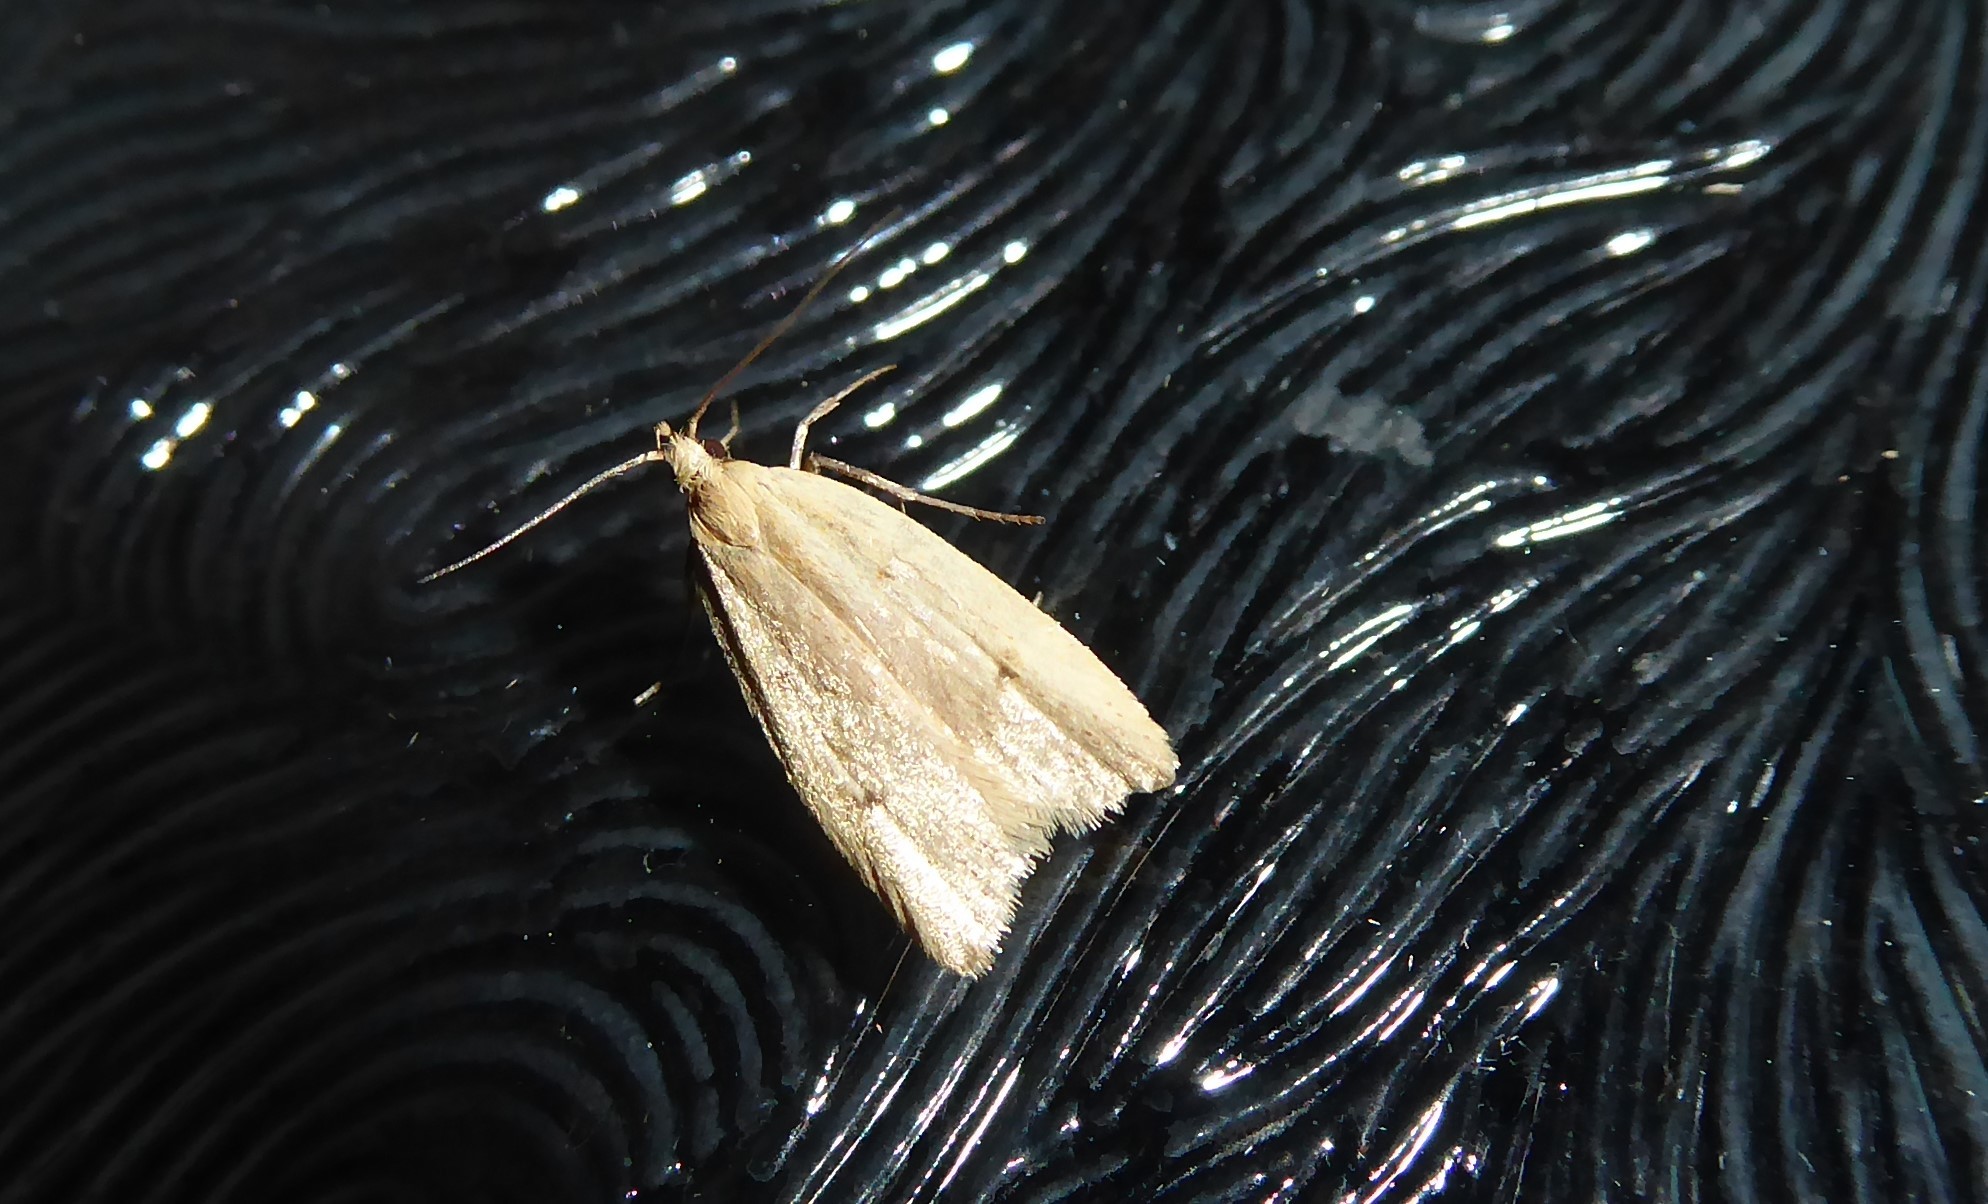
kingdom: Animalia
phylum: Arthropoda
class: Insecta
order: Lepidoptera
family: Oecophoridae
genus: Gymnobathra
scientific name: Gymnobathra sarcoxantha
